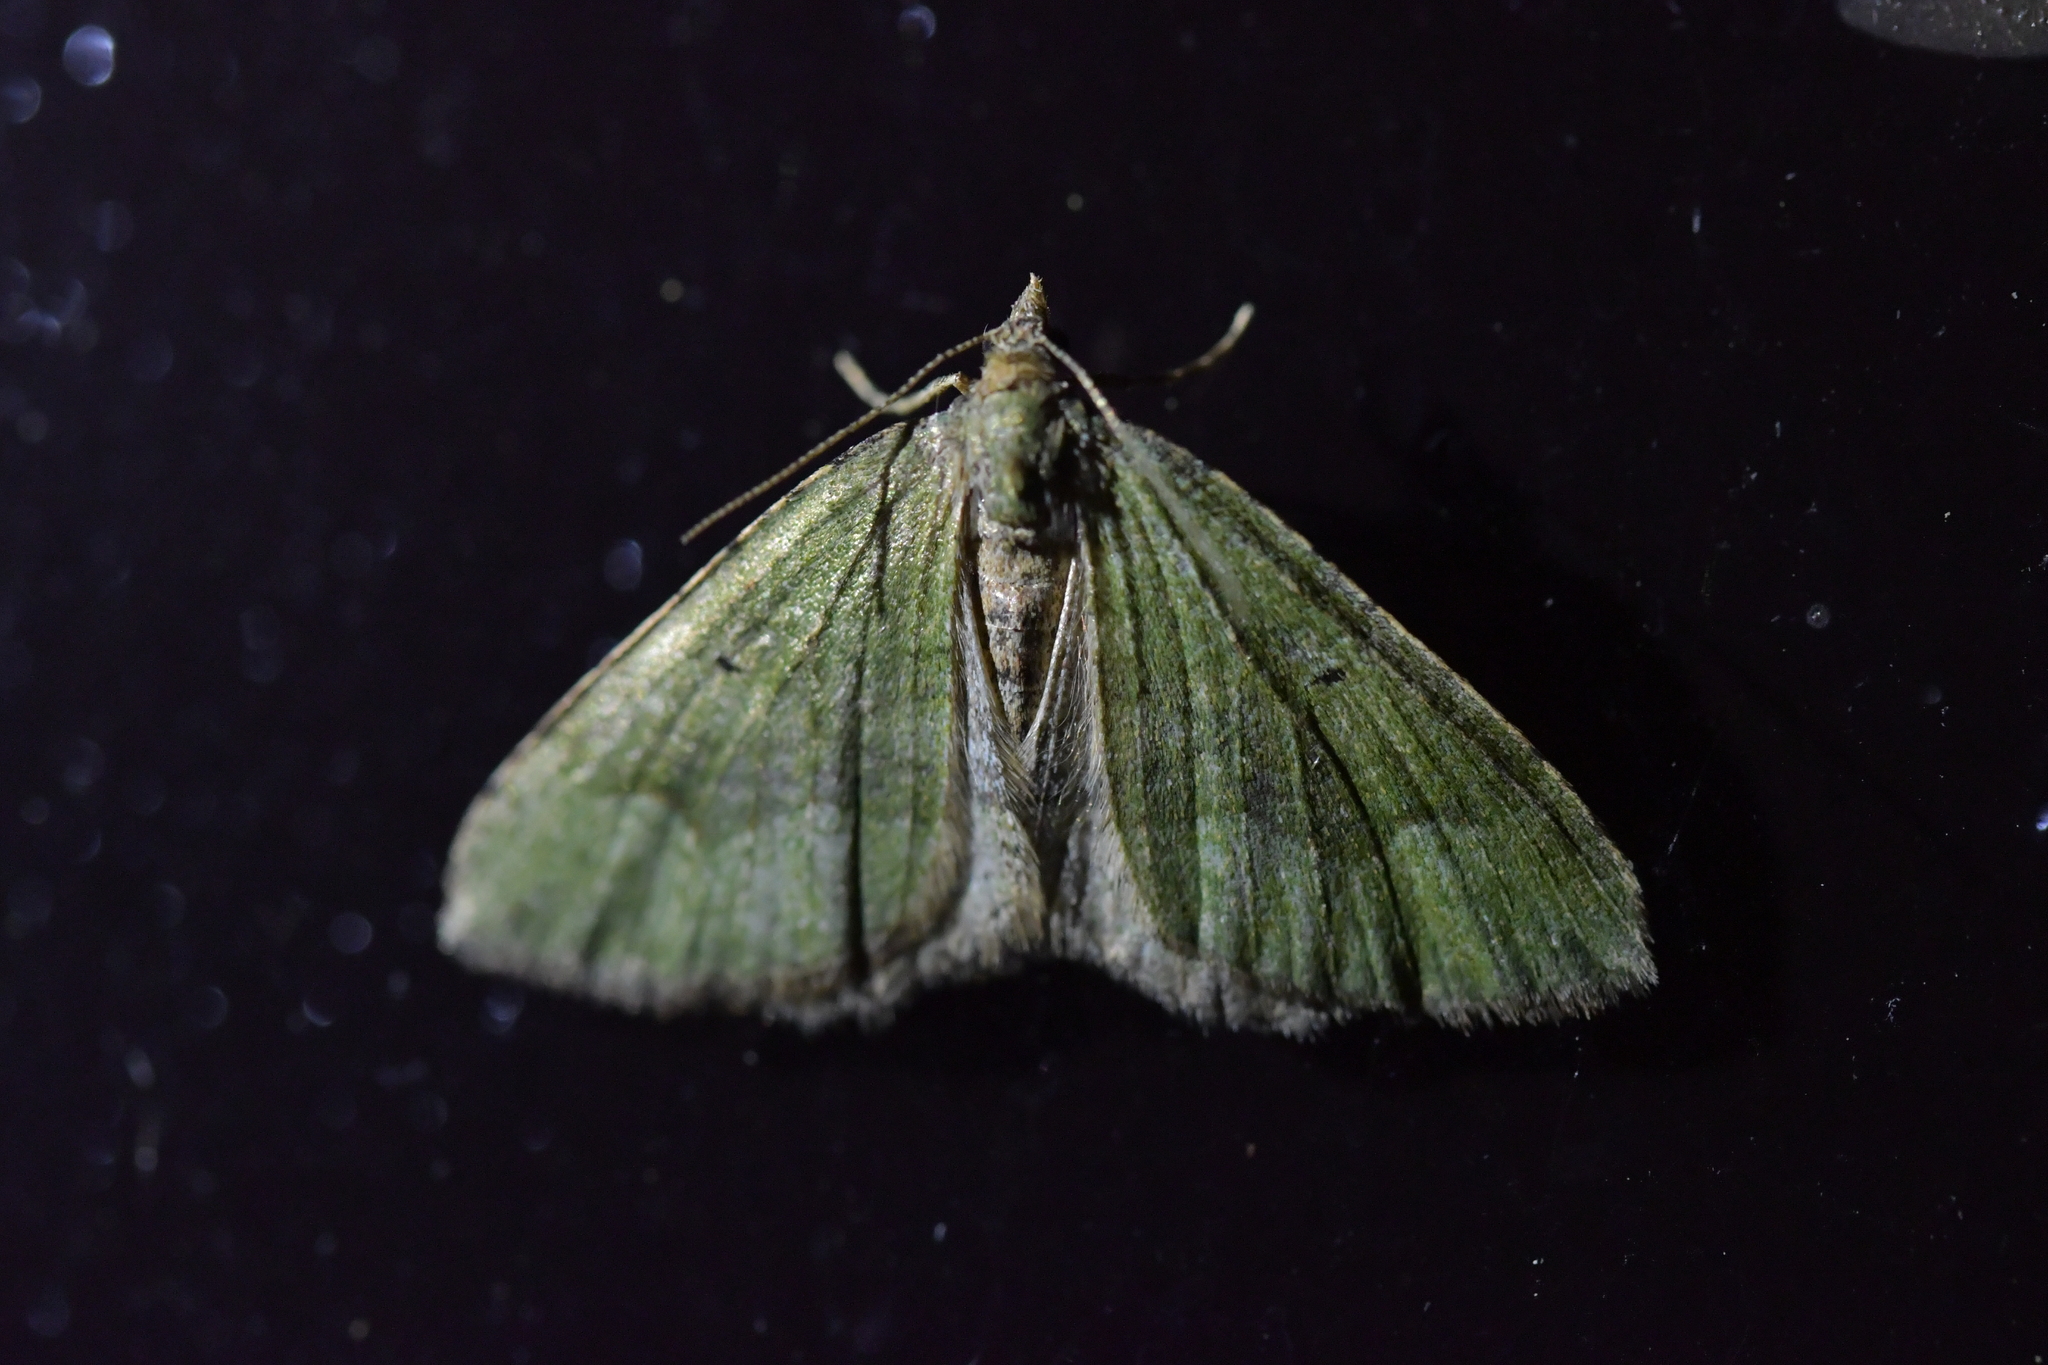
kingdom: Animalia
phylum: Arthropoda
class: Insecta
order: Lepidoptera
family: Geometridae
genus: Epyaxa
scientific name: Epyaxa rosearia
